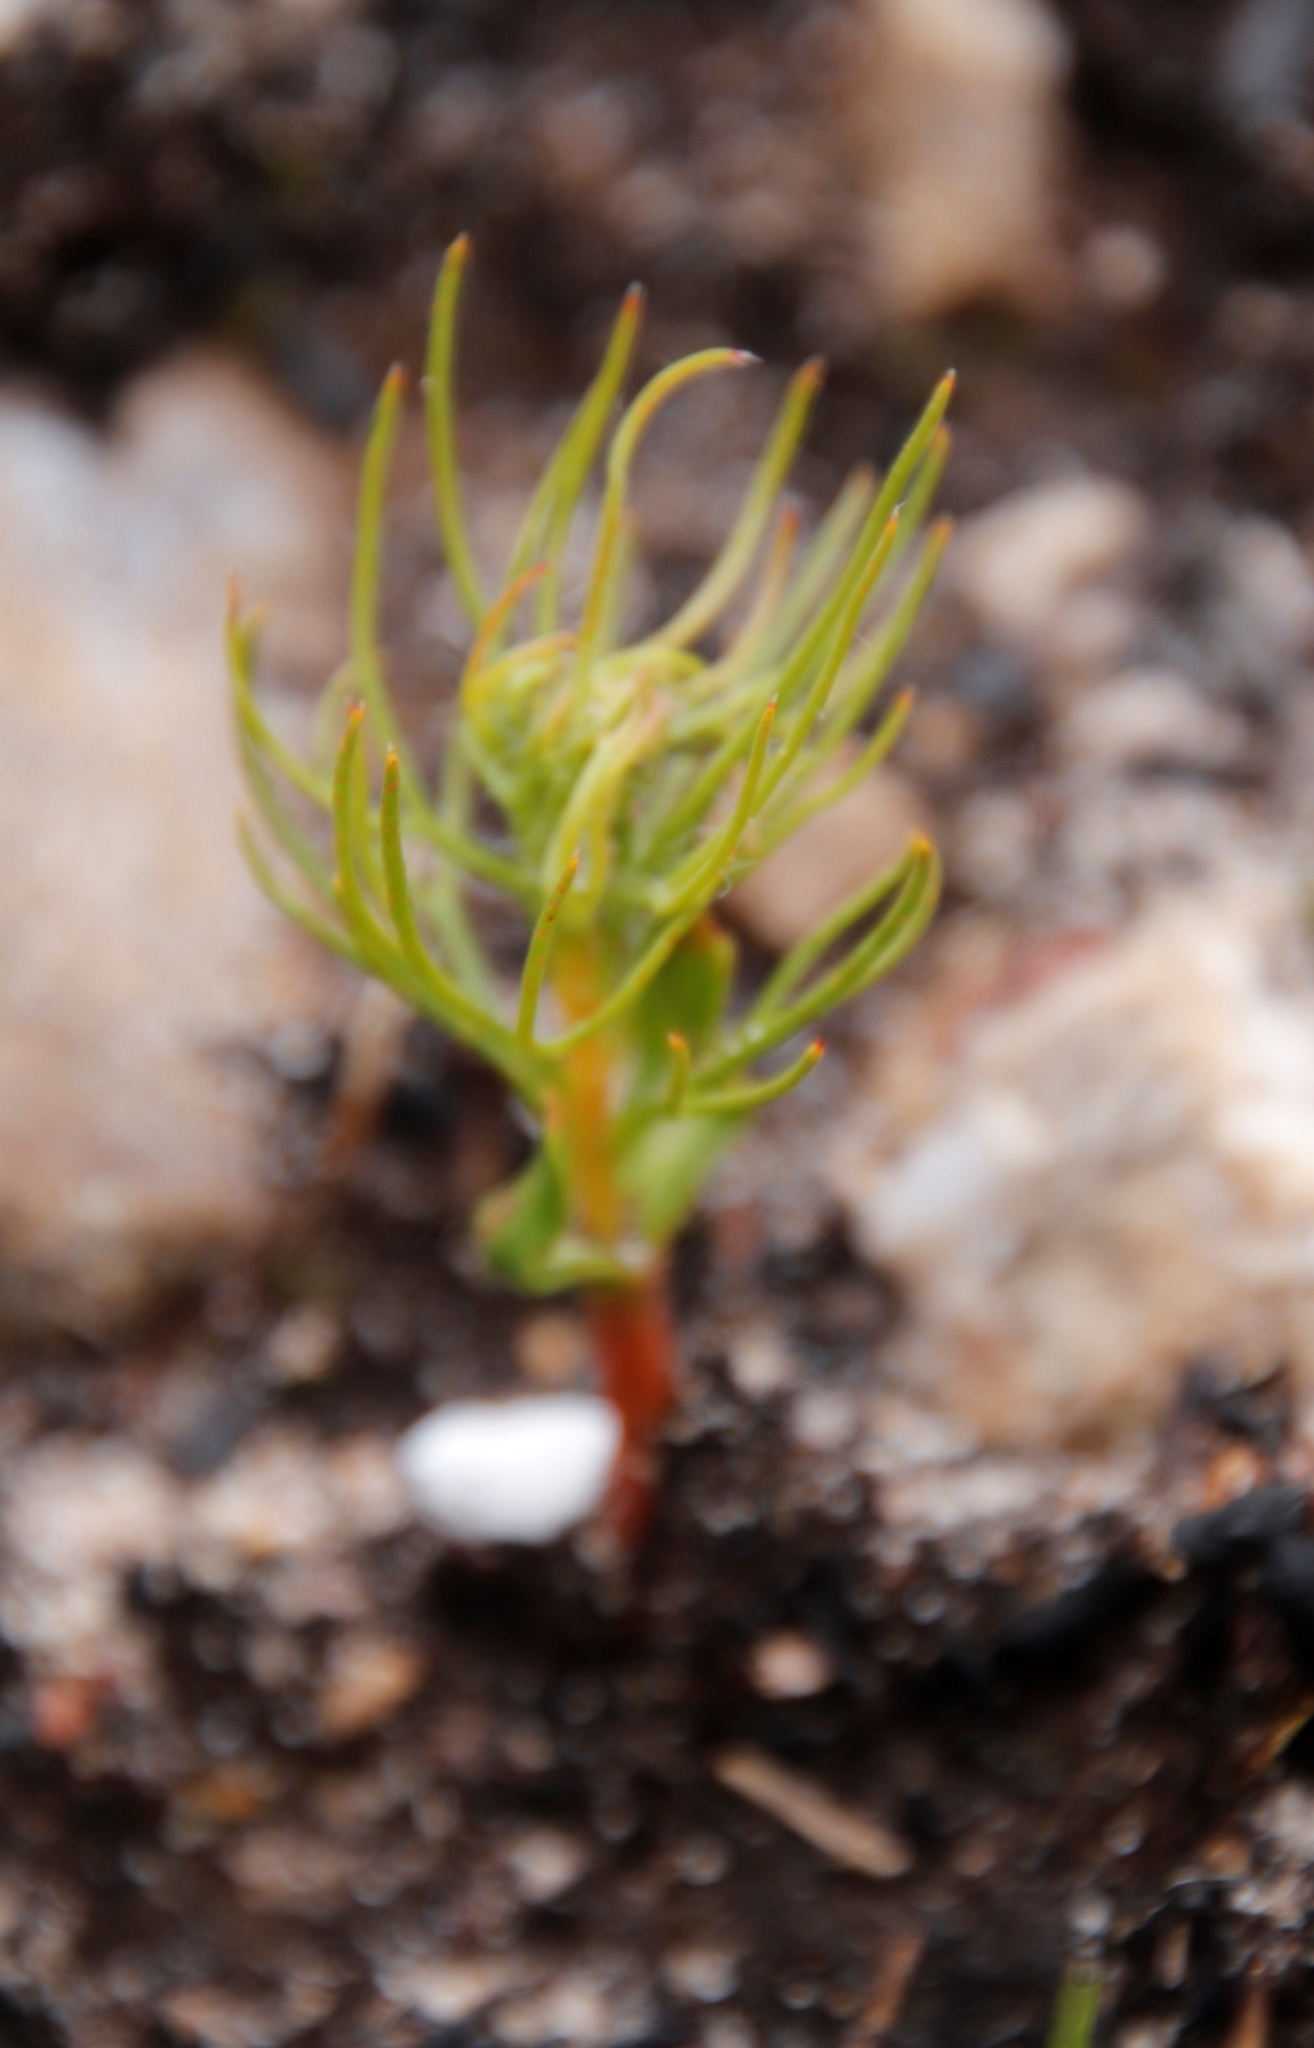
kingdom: Plantae
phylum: Tracheophyta
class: Magnoliopsida
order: Proteales
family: Proteaceae
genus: Serruria
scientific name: Serruria florida
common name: Blushing bride
